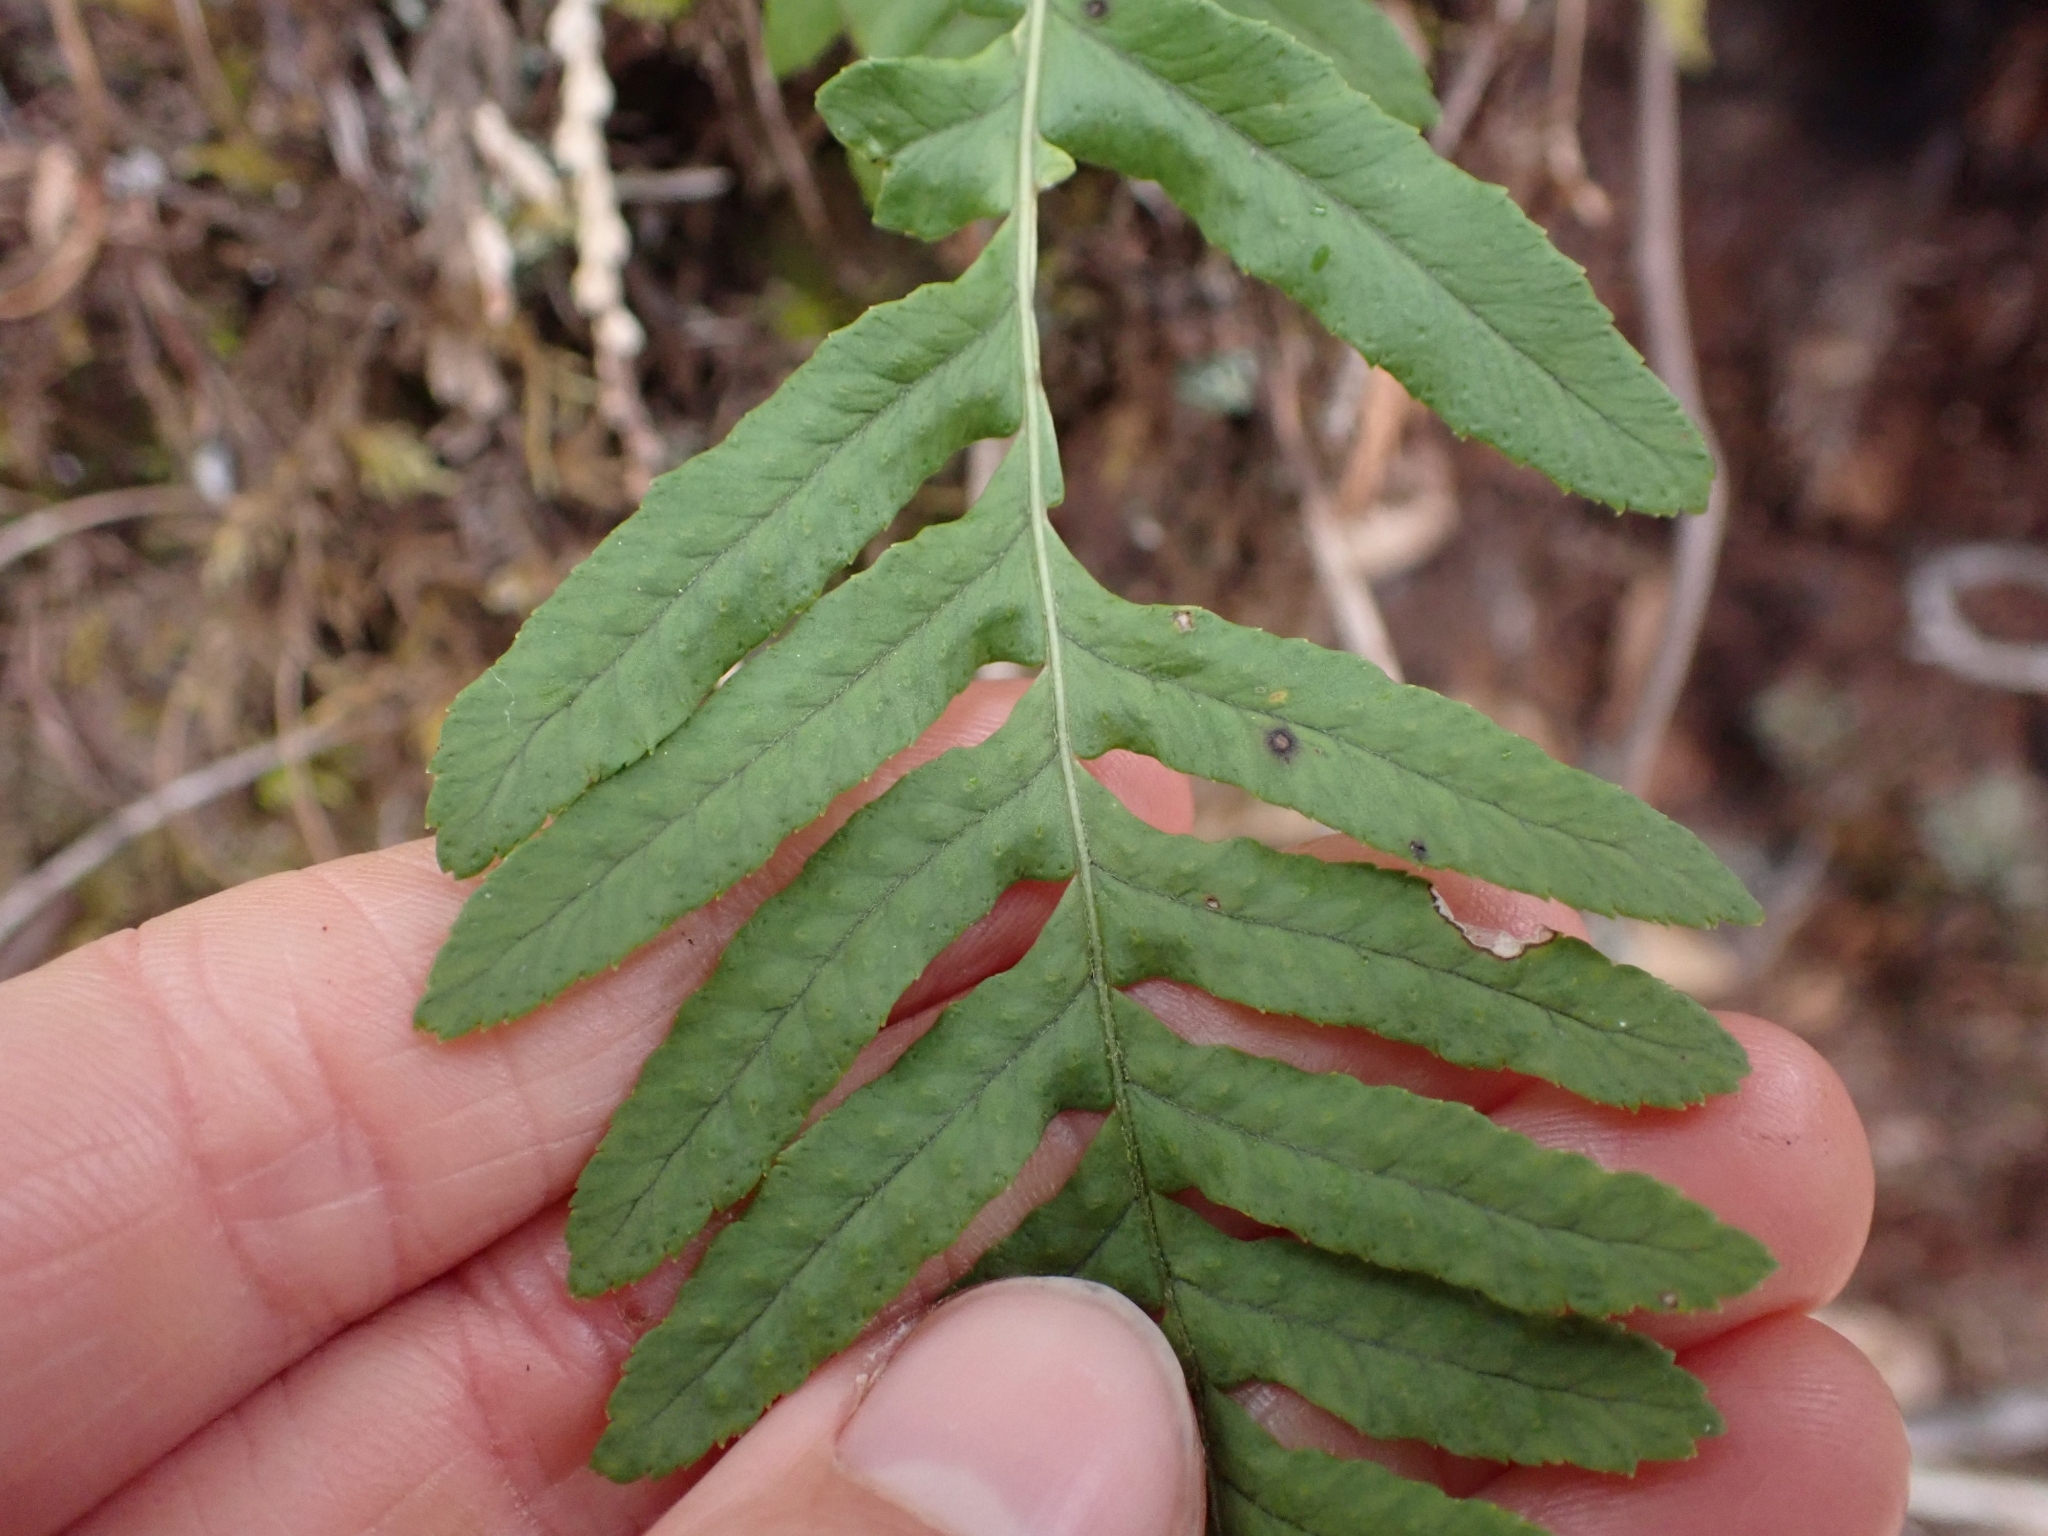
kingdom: Plantae
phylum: Tracheophyta
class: Polypodiopsida
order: Polypodiales
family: Polypodiaceae
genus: Polypodium
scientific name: Polypodium glycyrrhiza
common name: Licorice fern
